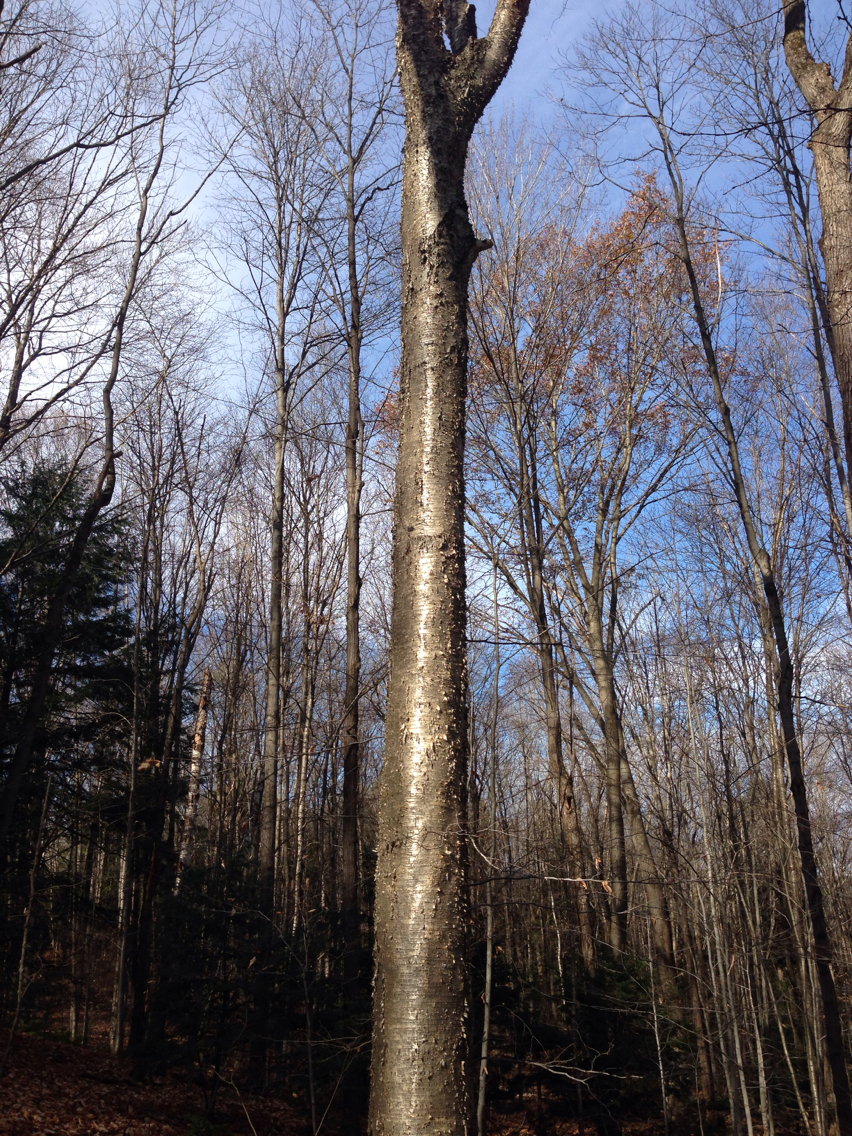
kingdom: Plantae
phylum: Tracheophyta
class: Magnoliopsida
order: Fagales
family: Betulaceae
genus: Betula
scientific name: Betula alleghaniensis
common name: Yellow birch
